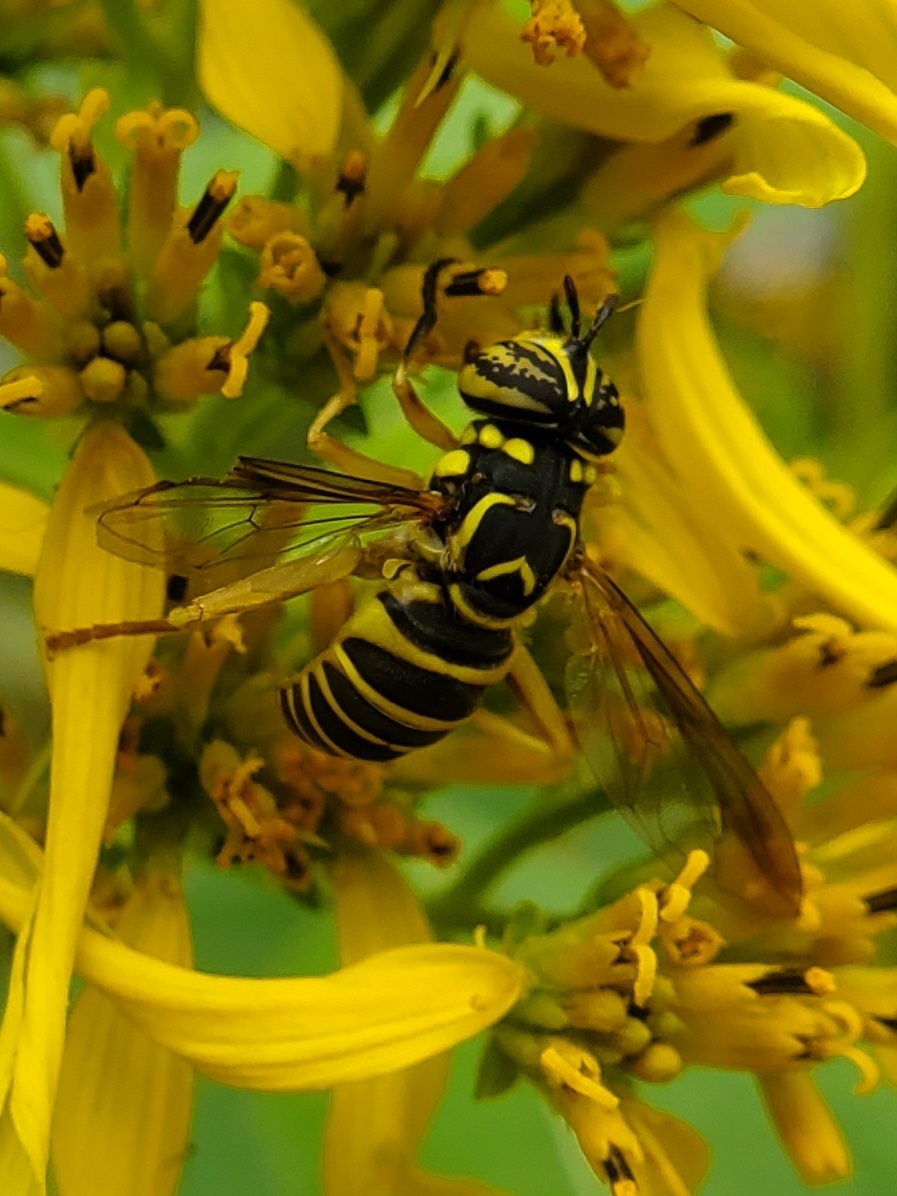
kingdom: Animalia
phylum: Arthropoda
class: Insecta
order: Diptera
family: Syrphidae
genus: Spilomyia
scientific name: Spilomyia longicornis
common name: Eastern hornet fly
